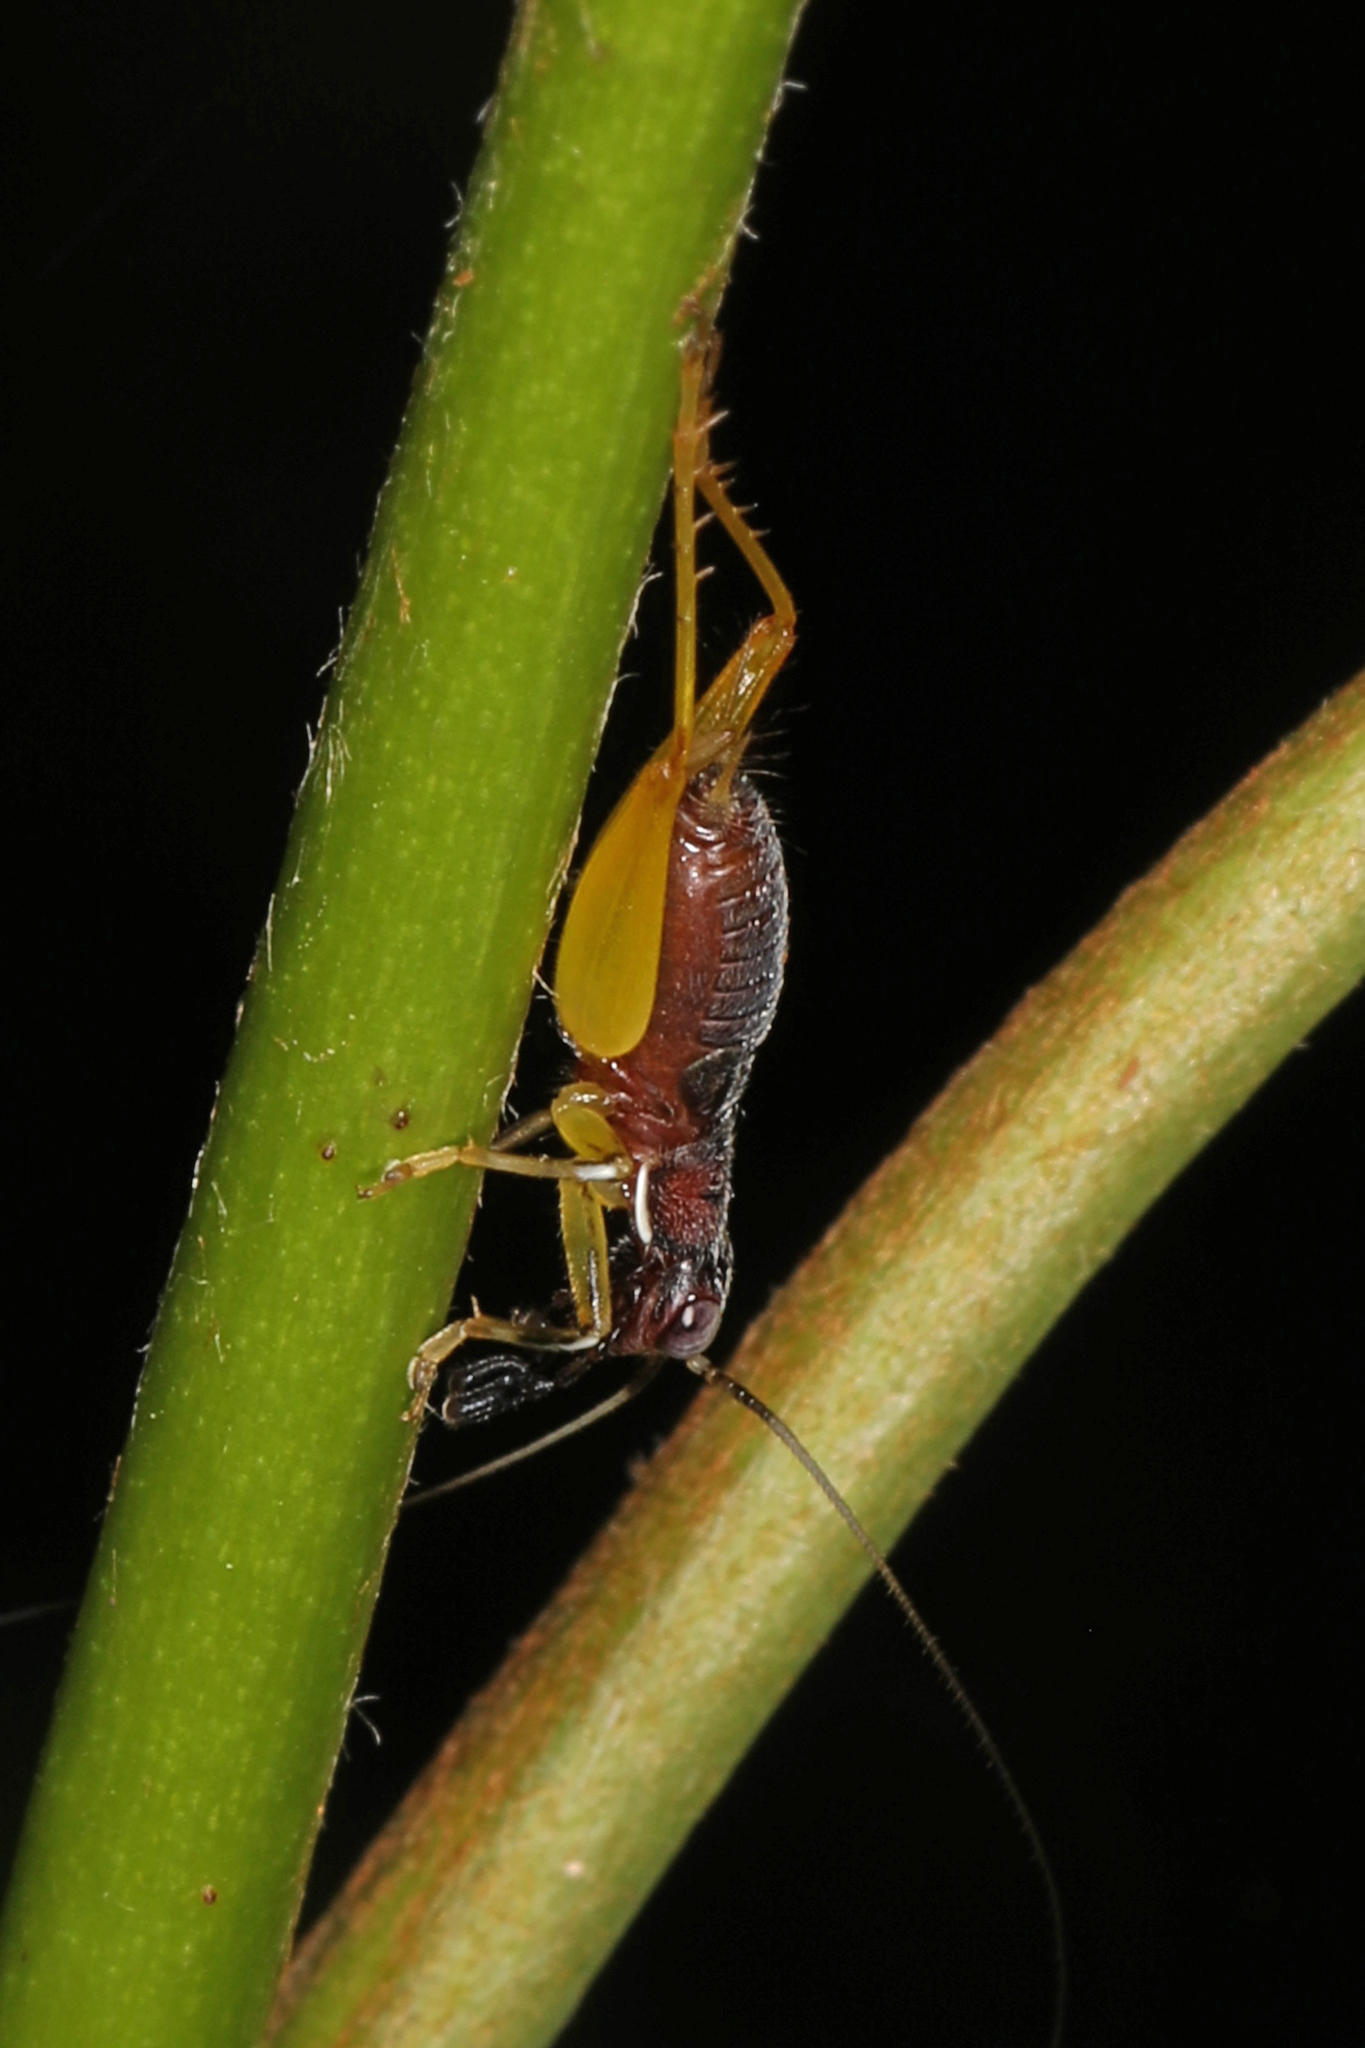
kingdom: Animalia
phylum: Arthropoda
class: Insecta
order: Orthoptera
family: Trigonidiidae
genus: Phyllopalpus
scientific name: Phyllopalpus pulchellus
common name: Handsome trig
